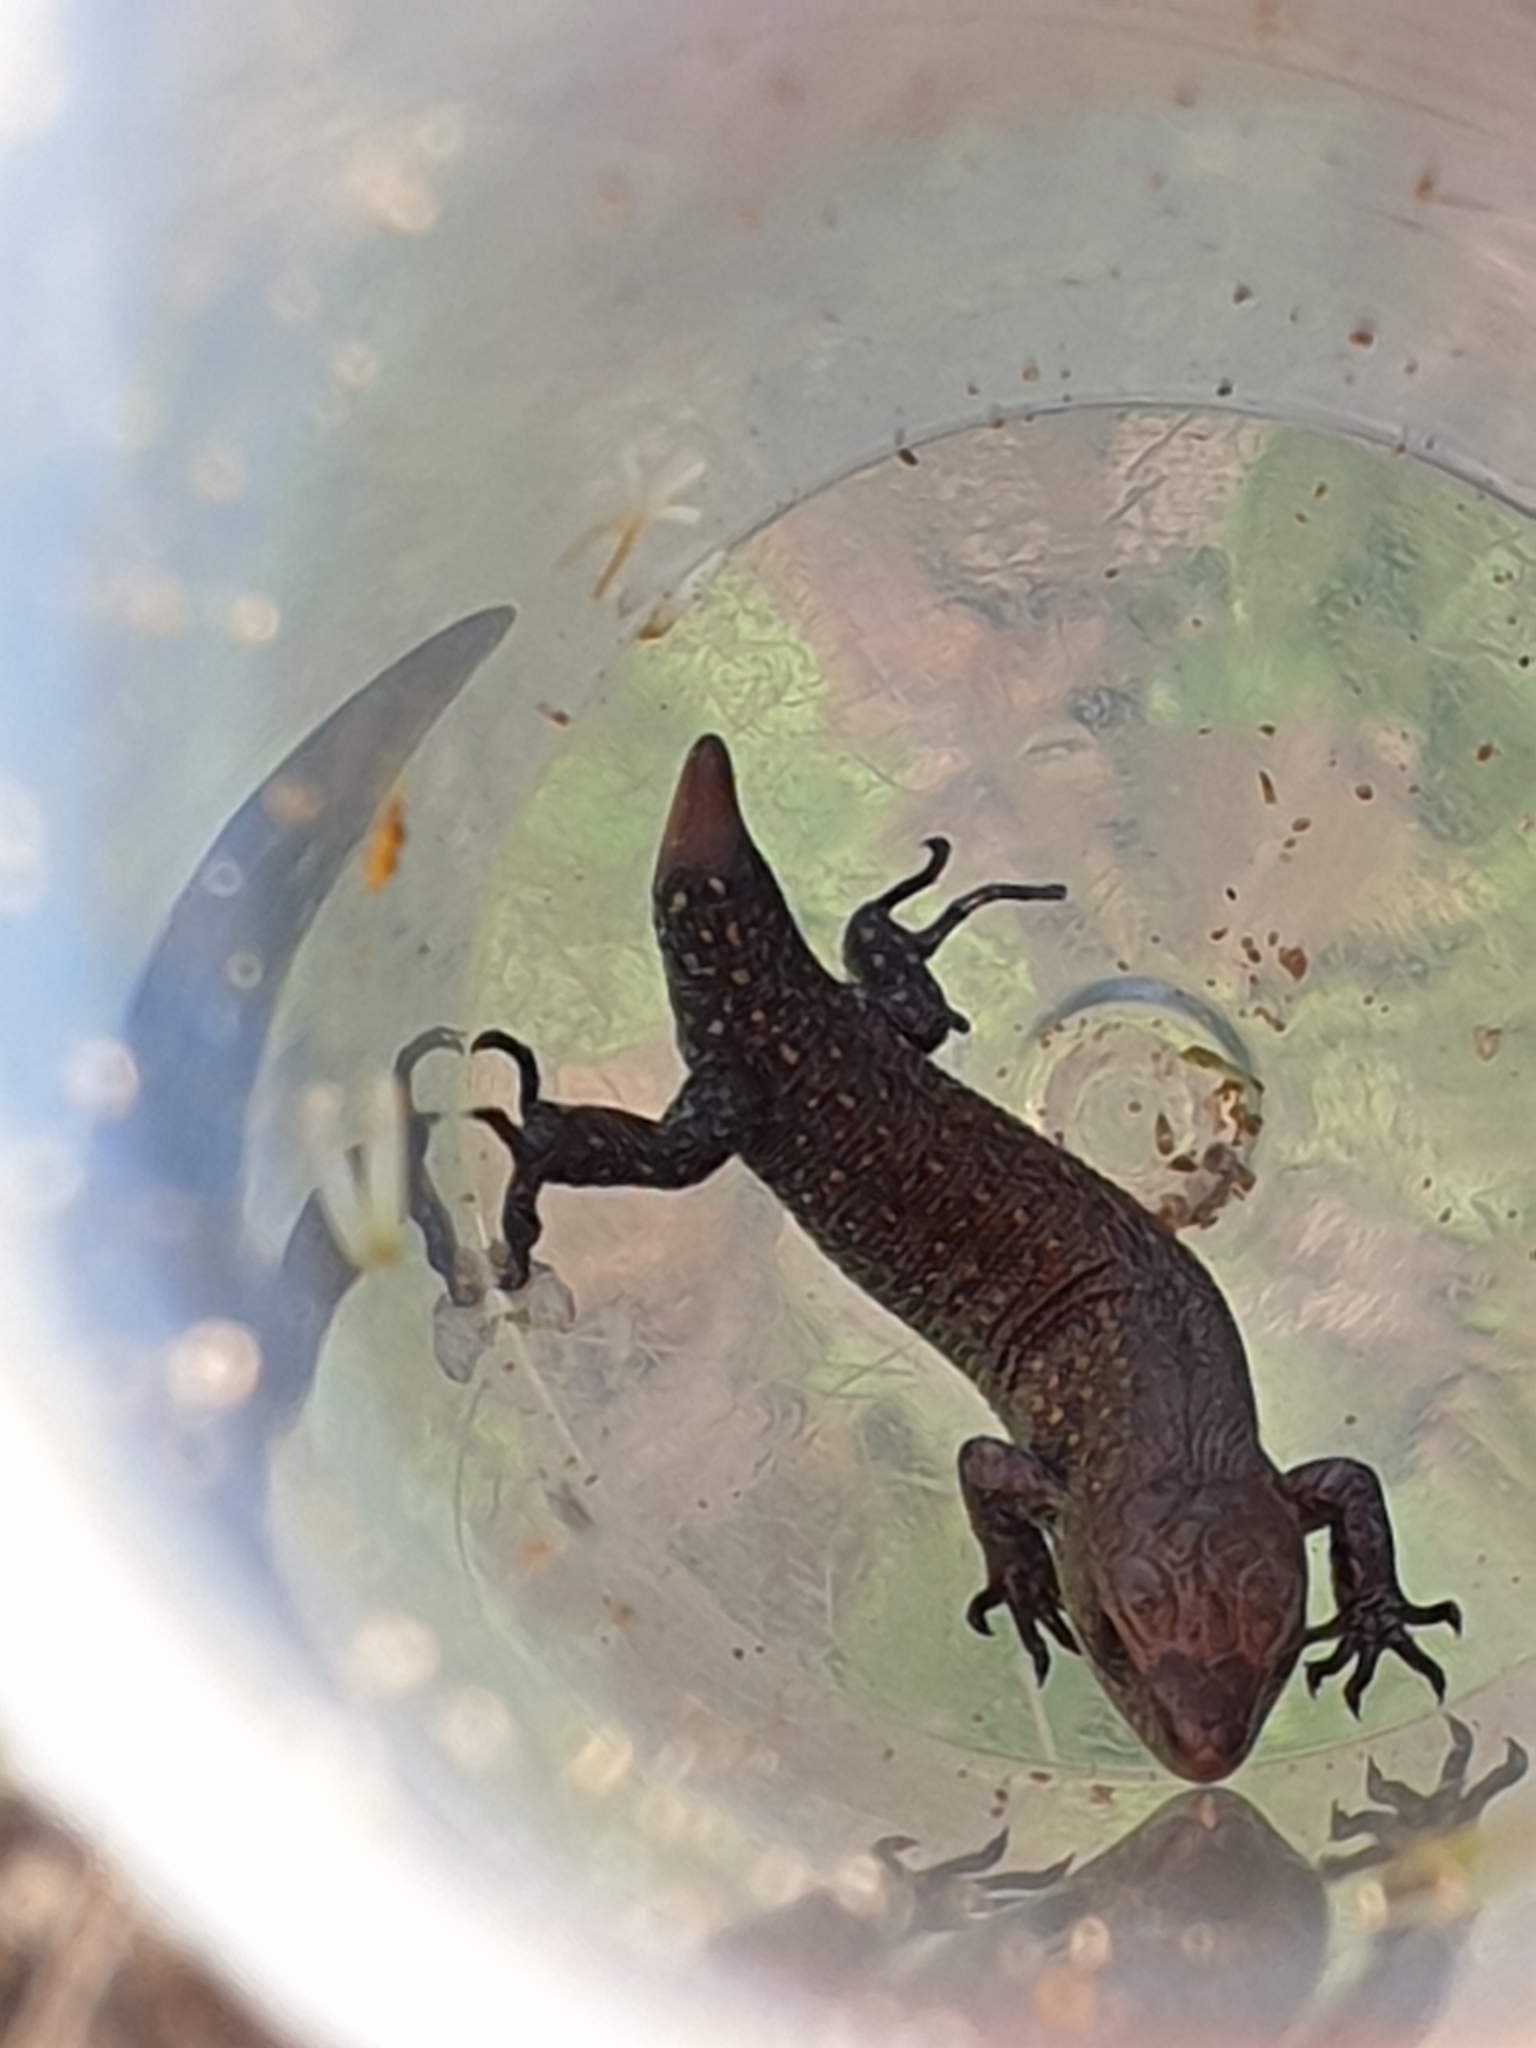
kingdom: Animalia
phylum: Chordata
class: Squamata
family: Lacertidae
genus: Zootoca
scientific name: Zootoca vivipara
